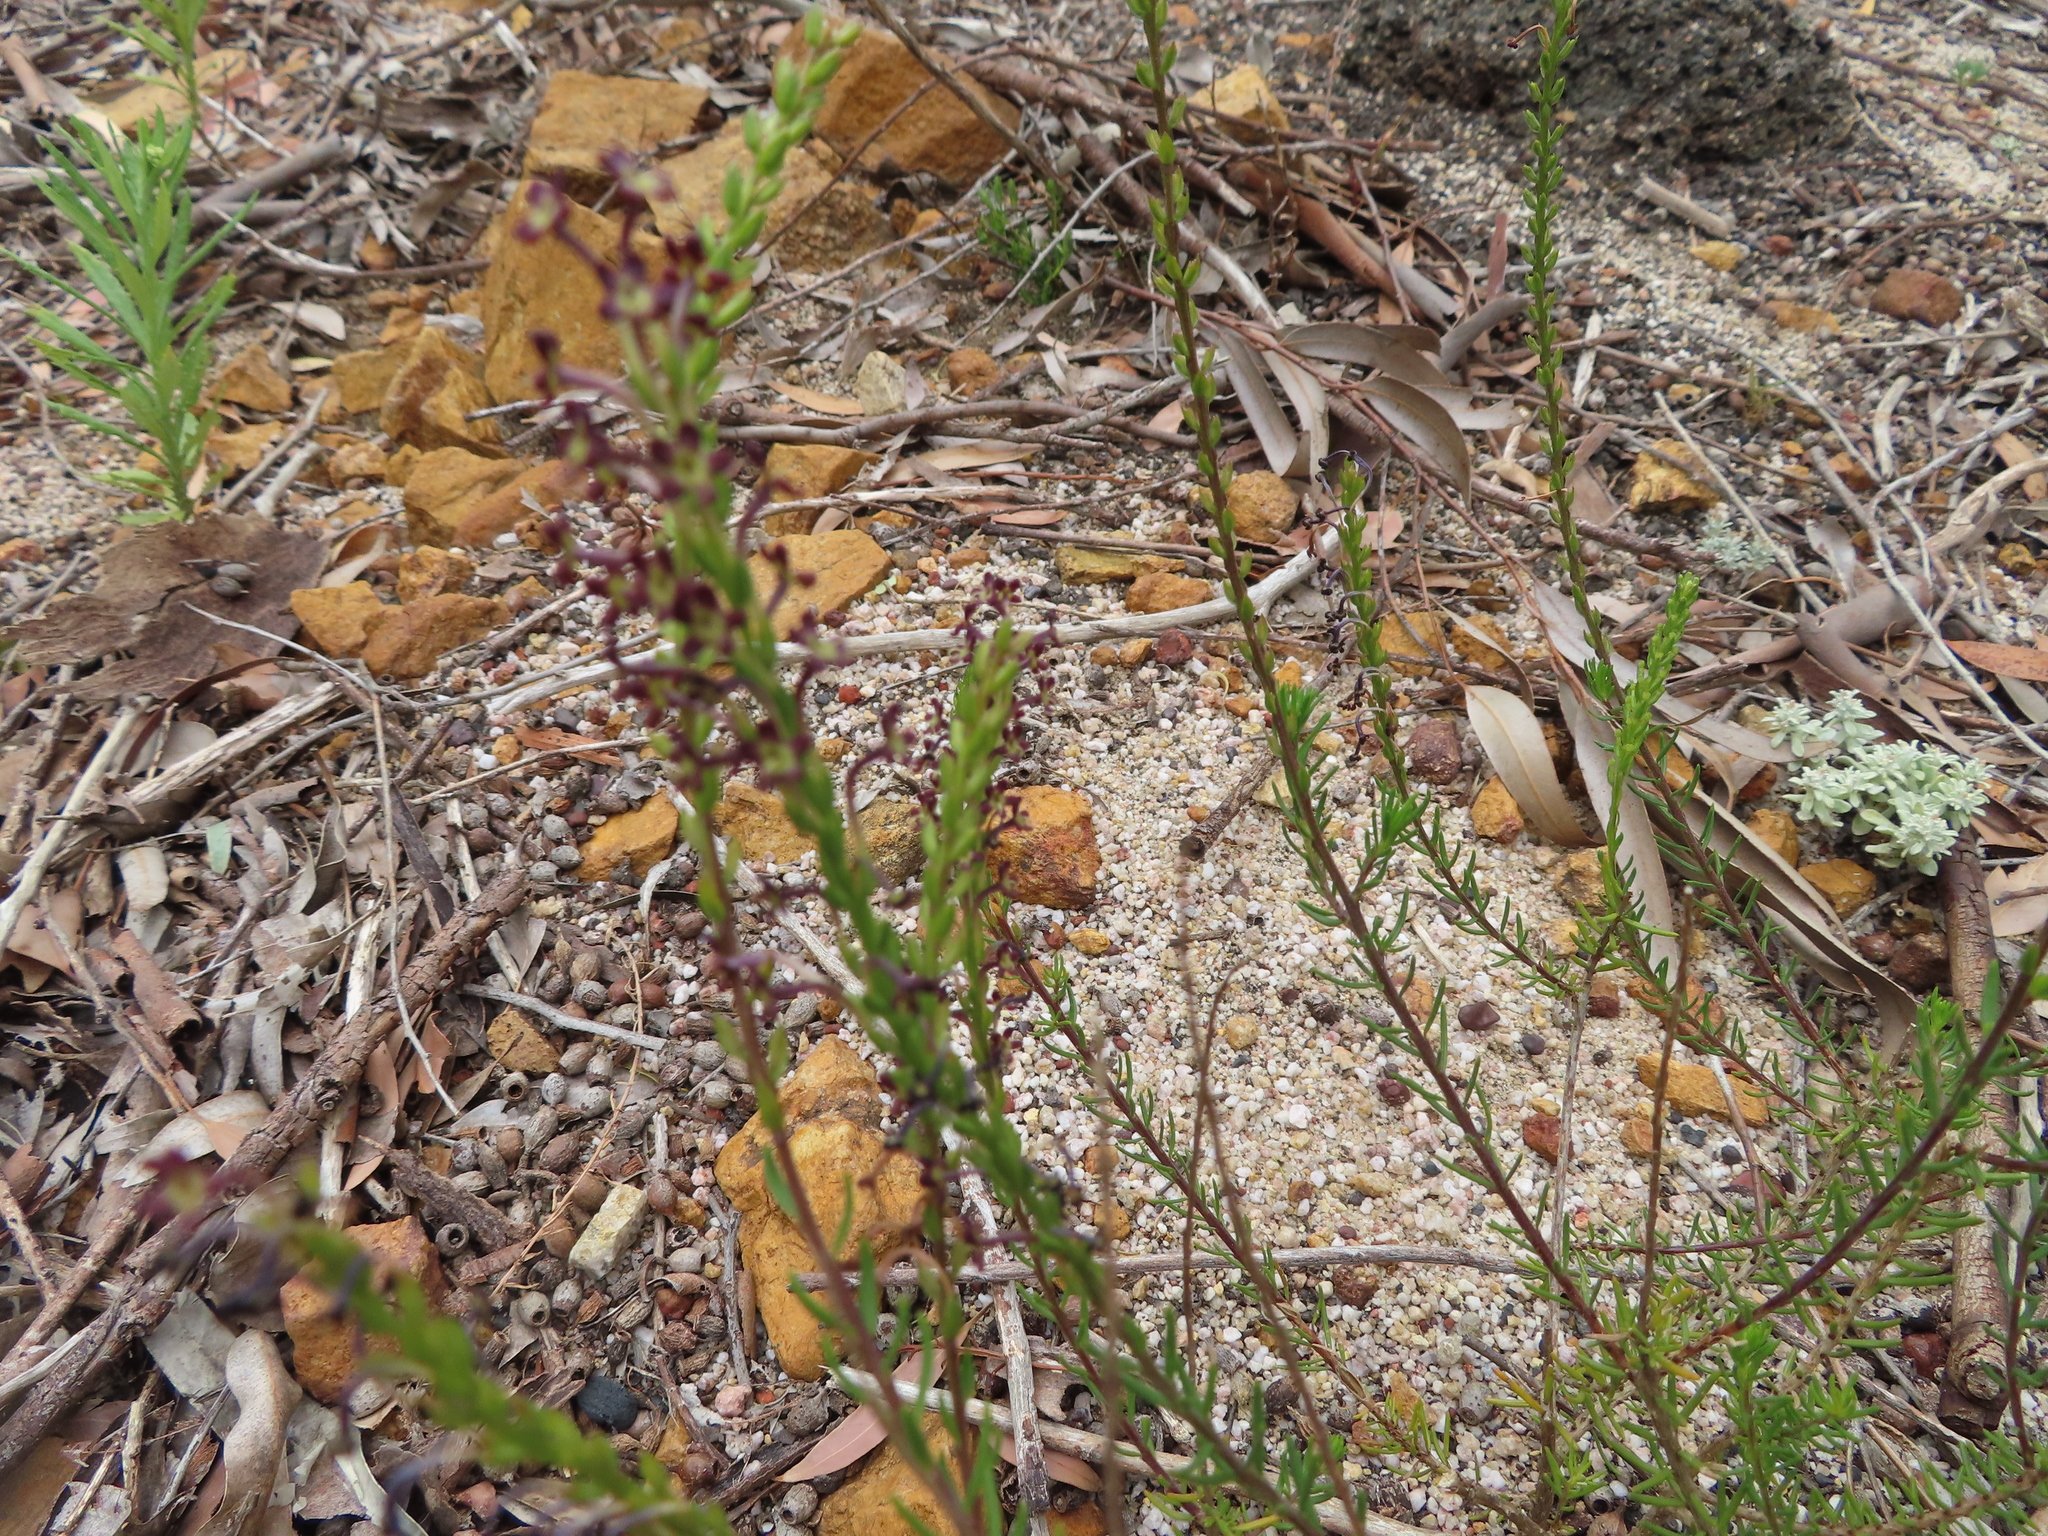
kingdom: Plantae
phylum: Tracheophyta
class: Magnoliopsida
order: Lamiales
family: Scrophulariaceae
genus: Microdon
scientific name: Microdon dubius
